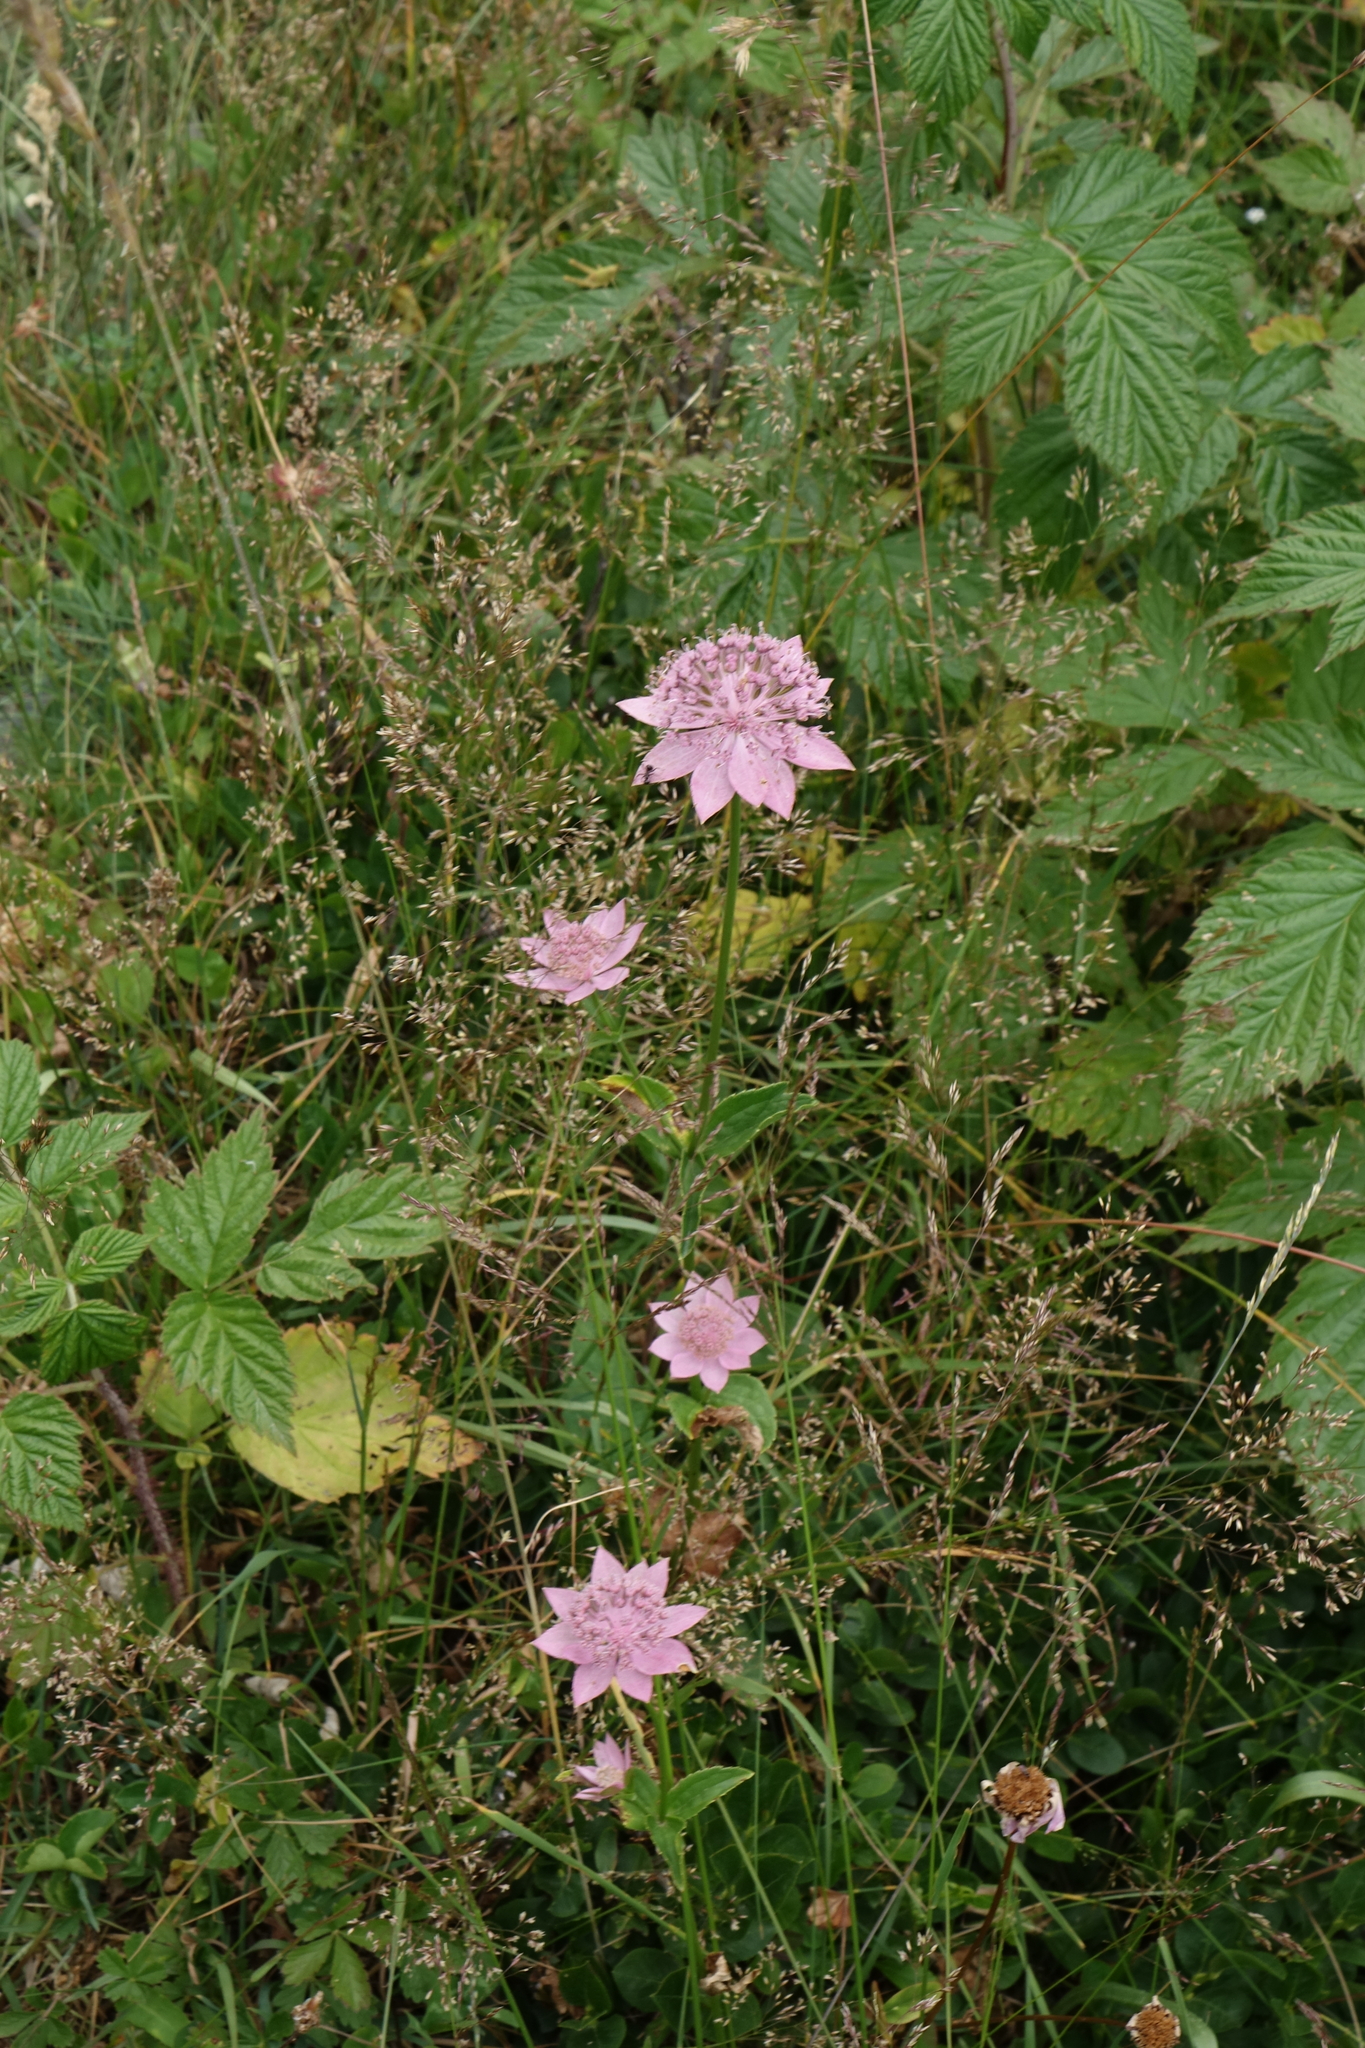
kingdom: Plantae
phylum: Tracheophyta
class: Magnoliopsida
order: Apiales
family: Apiaceae
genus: Astrantia
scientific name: Astrantia maxima
